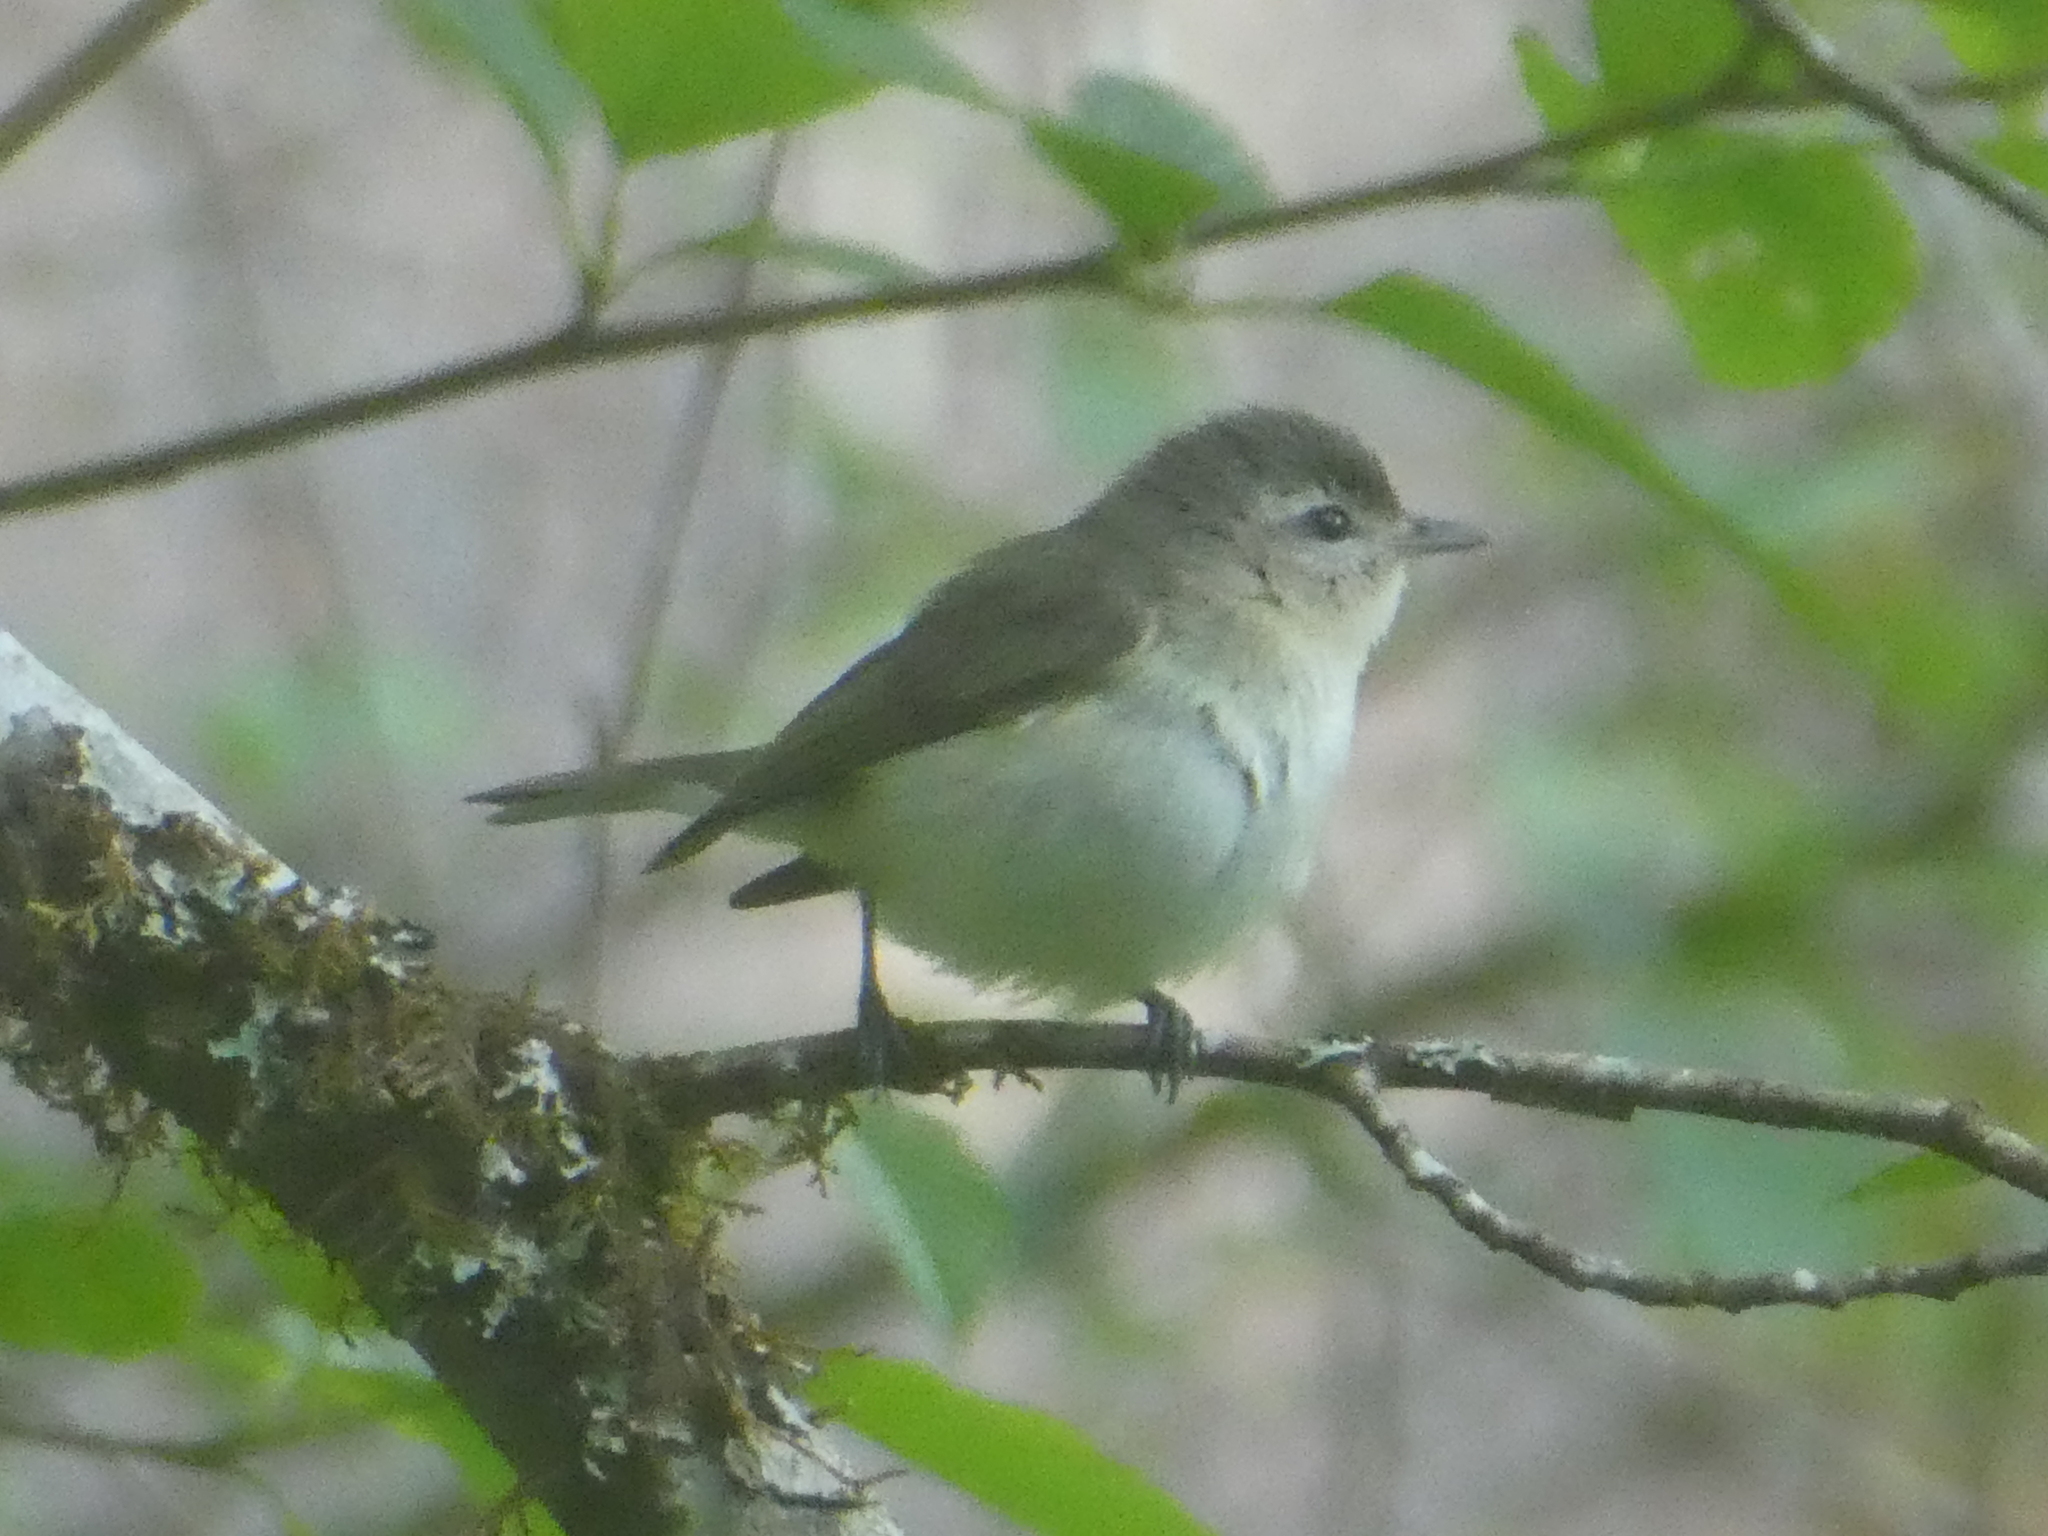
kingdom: Animalia
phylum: Chordata
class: Aves
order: Passeriformes
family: Vireonidae
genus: Vireo
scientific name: Vireo gilvus
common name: Warbling vireo
